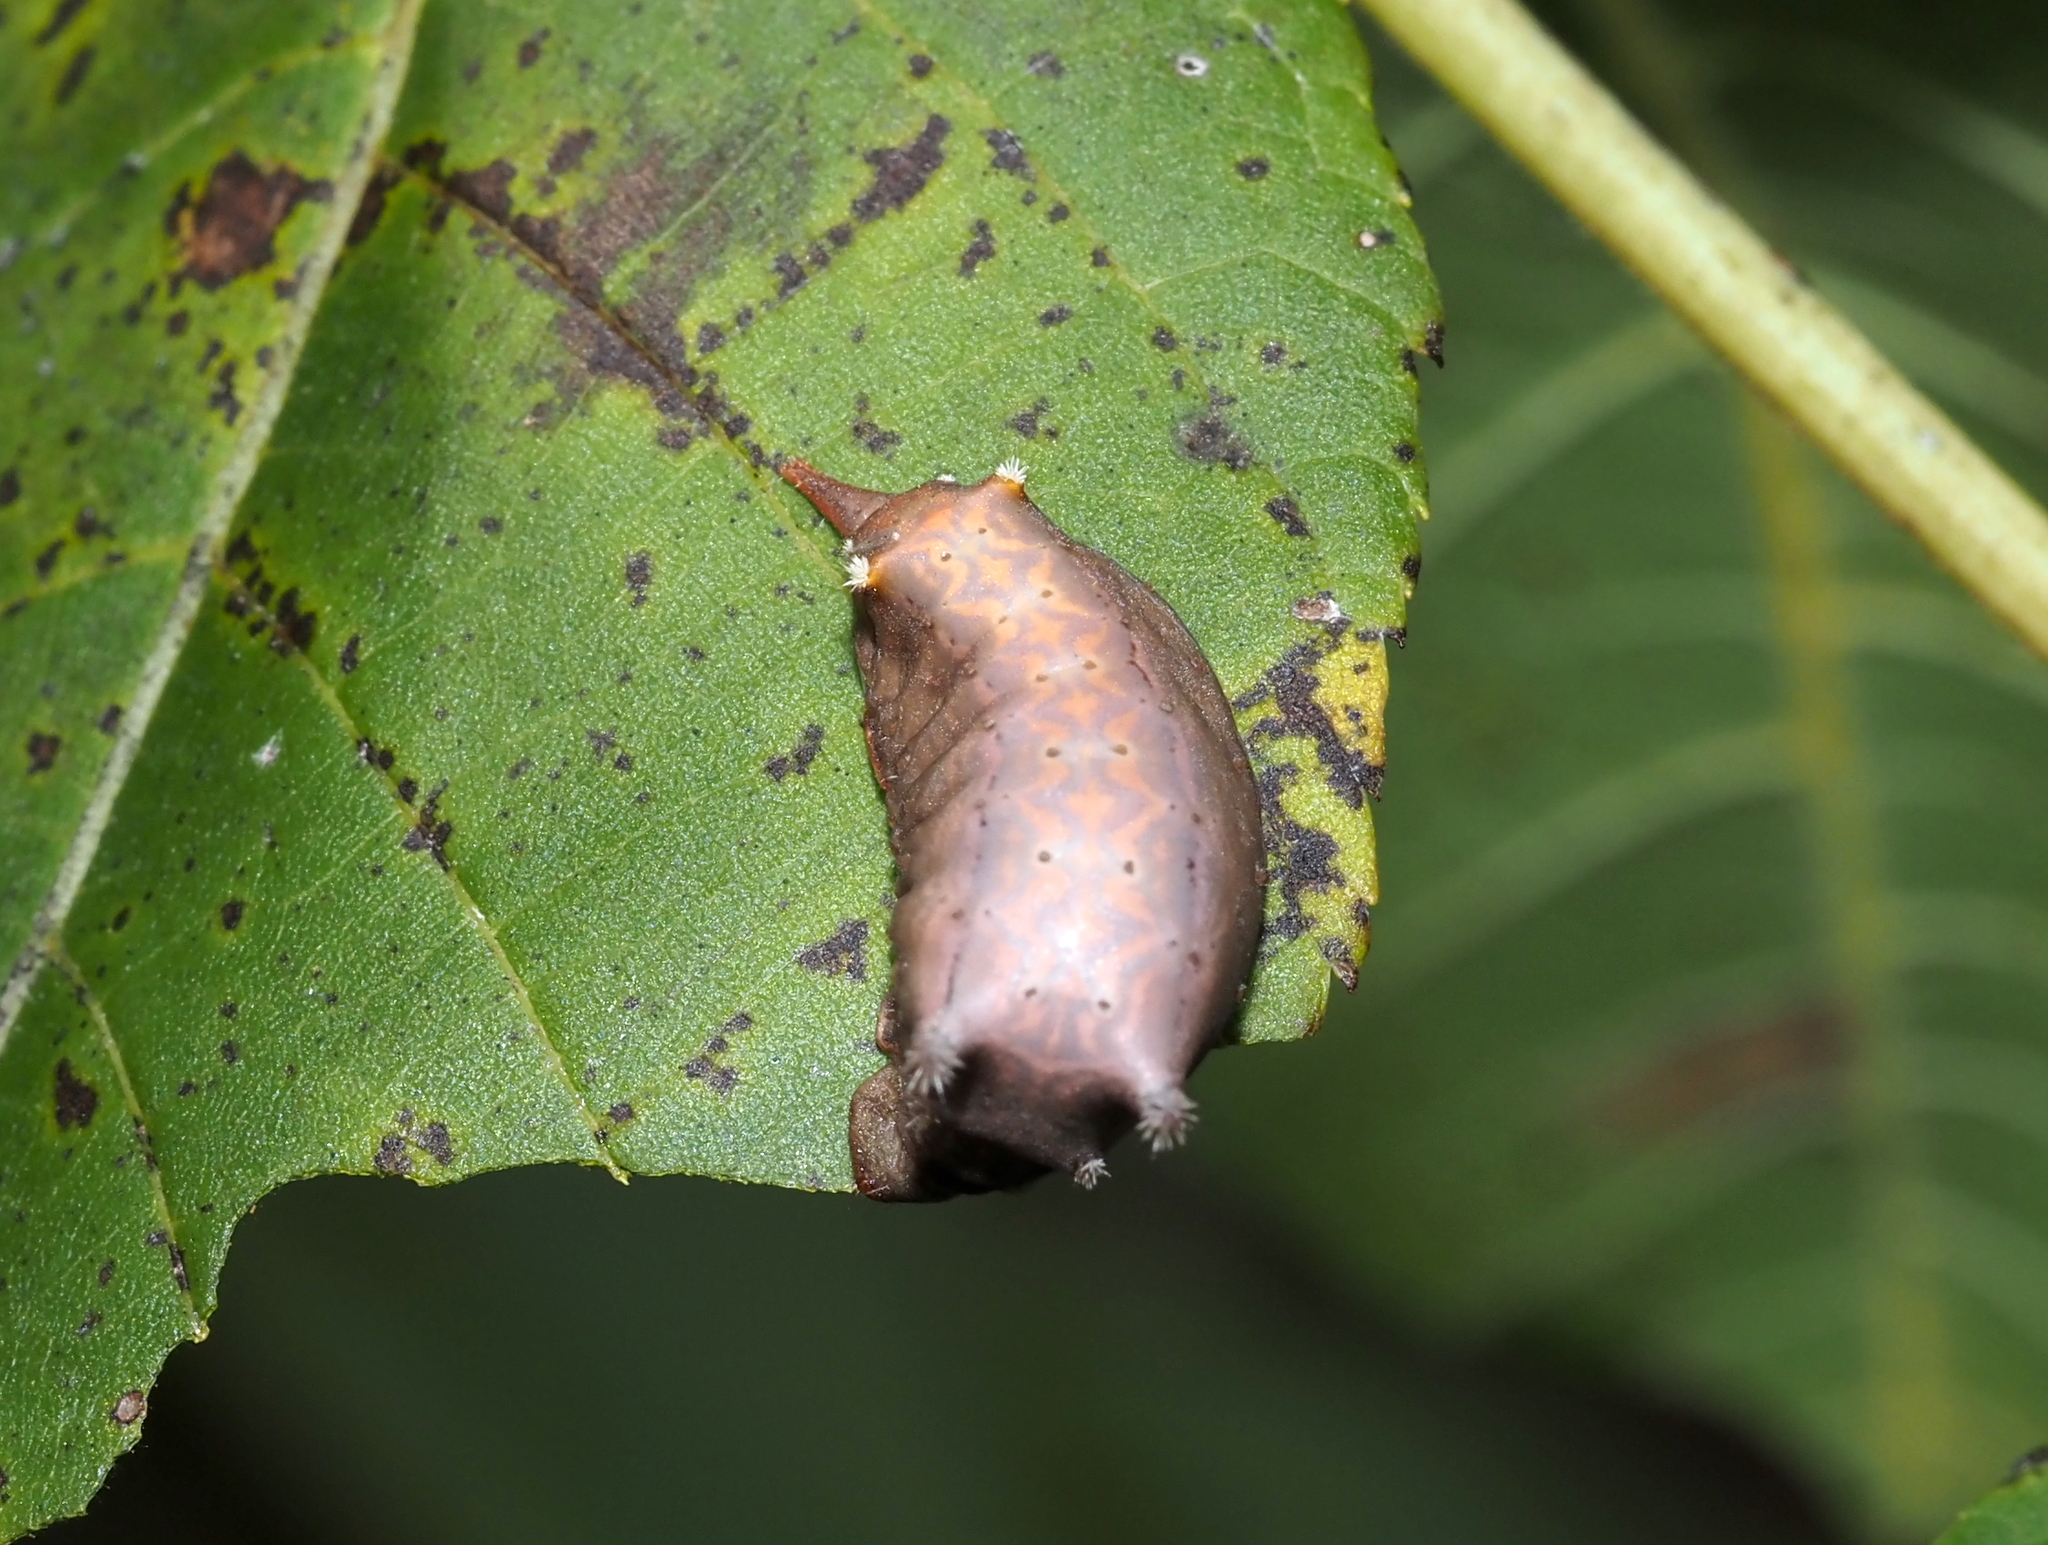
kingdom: Animalia
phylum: Arthropoda
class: Insecta
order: Lepidoptera
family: Limacodidae
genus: Parasa
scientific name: Parasa chloris
